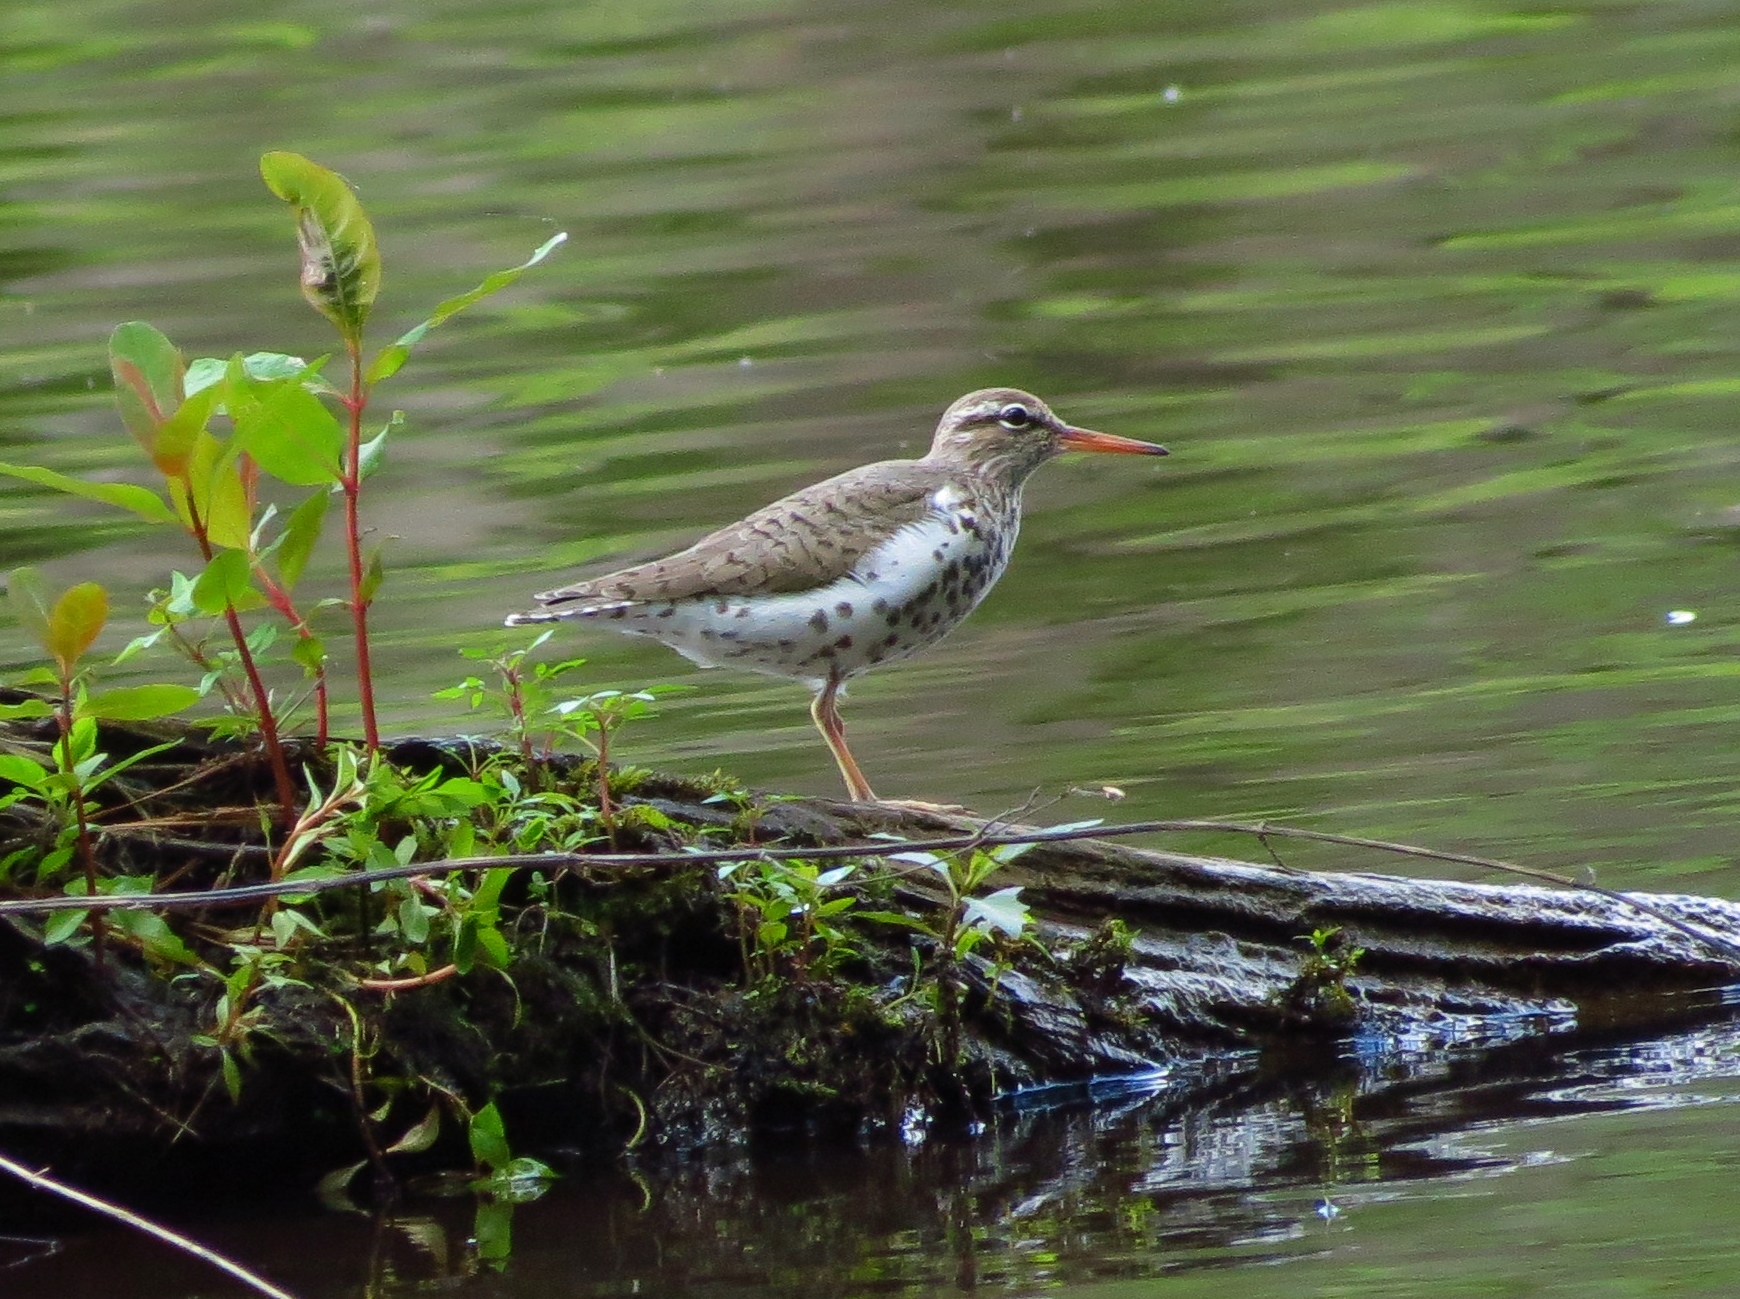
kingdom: Animalia
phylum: Chordata
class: Aves
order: Charadriiformes
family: Scolopacidae
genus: Actitis
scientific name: Actitis macularius
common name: Spotted sandpiper
